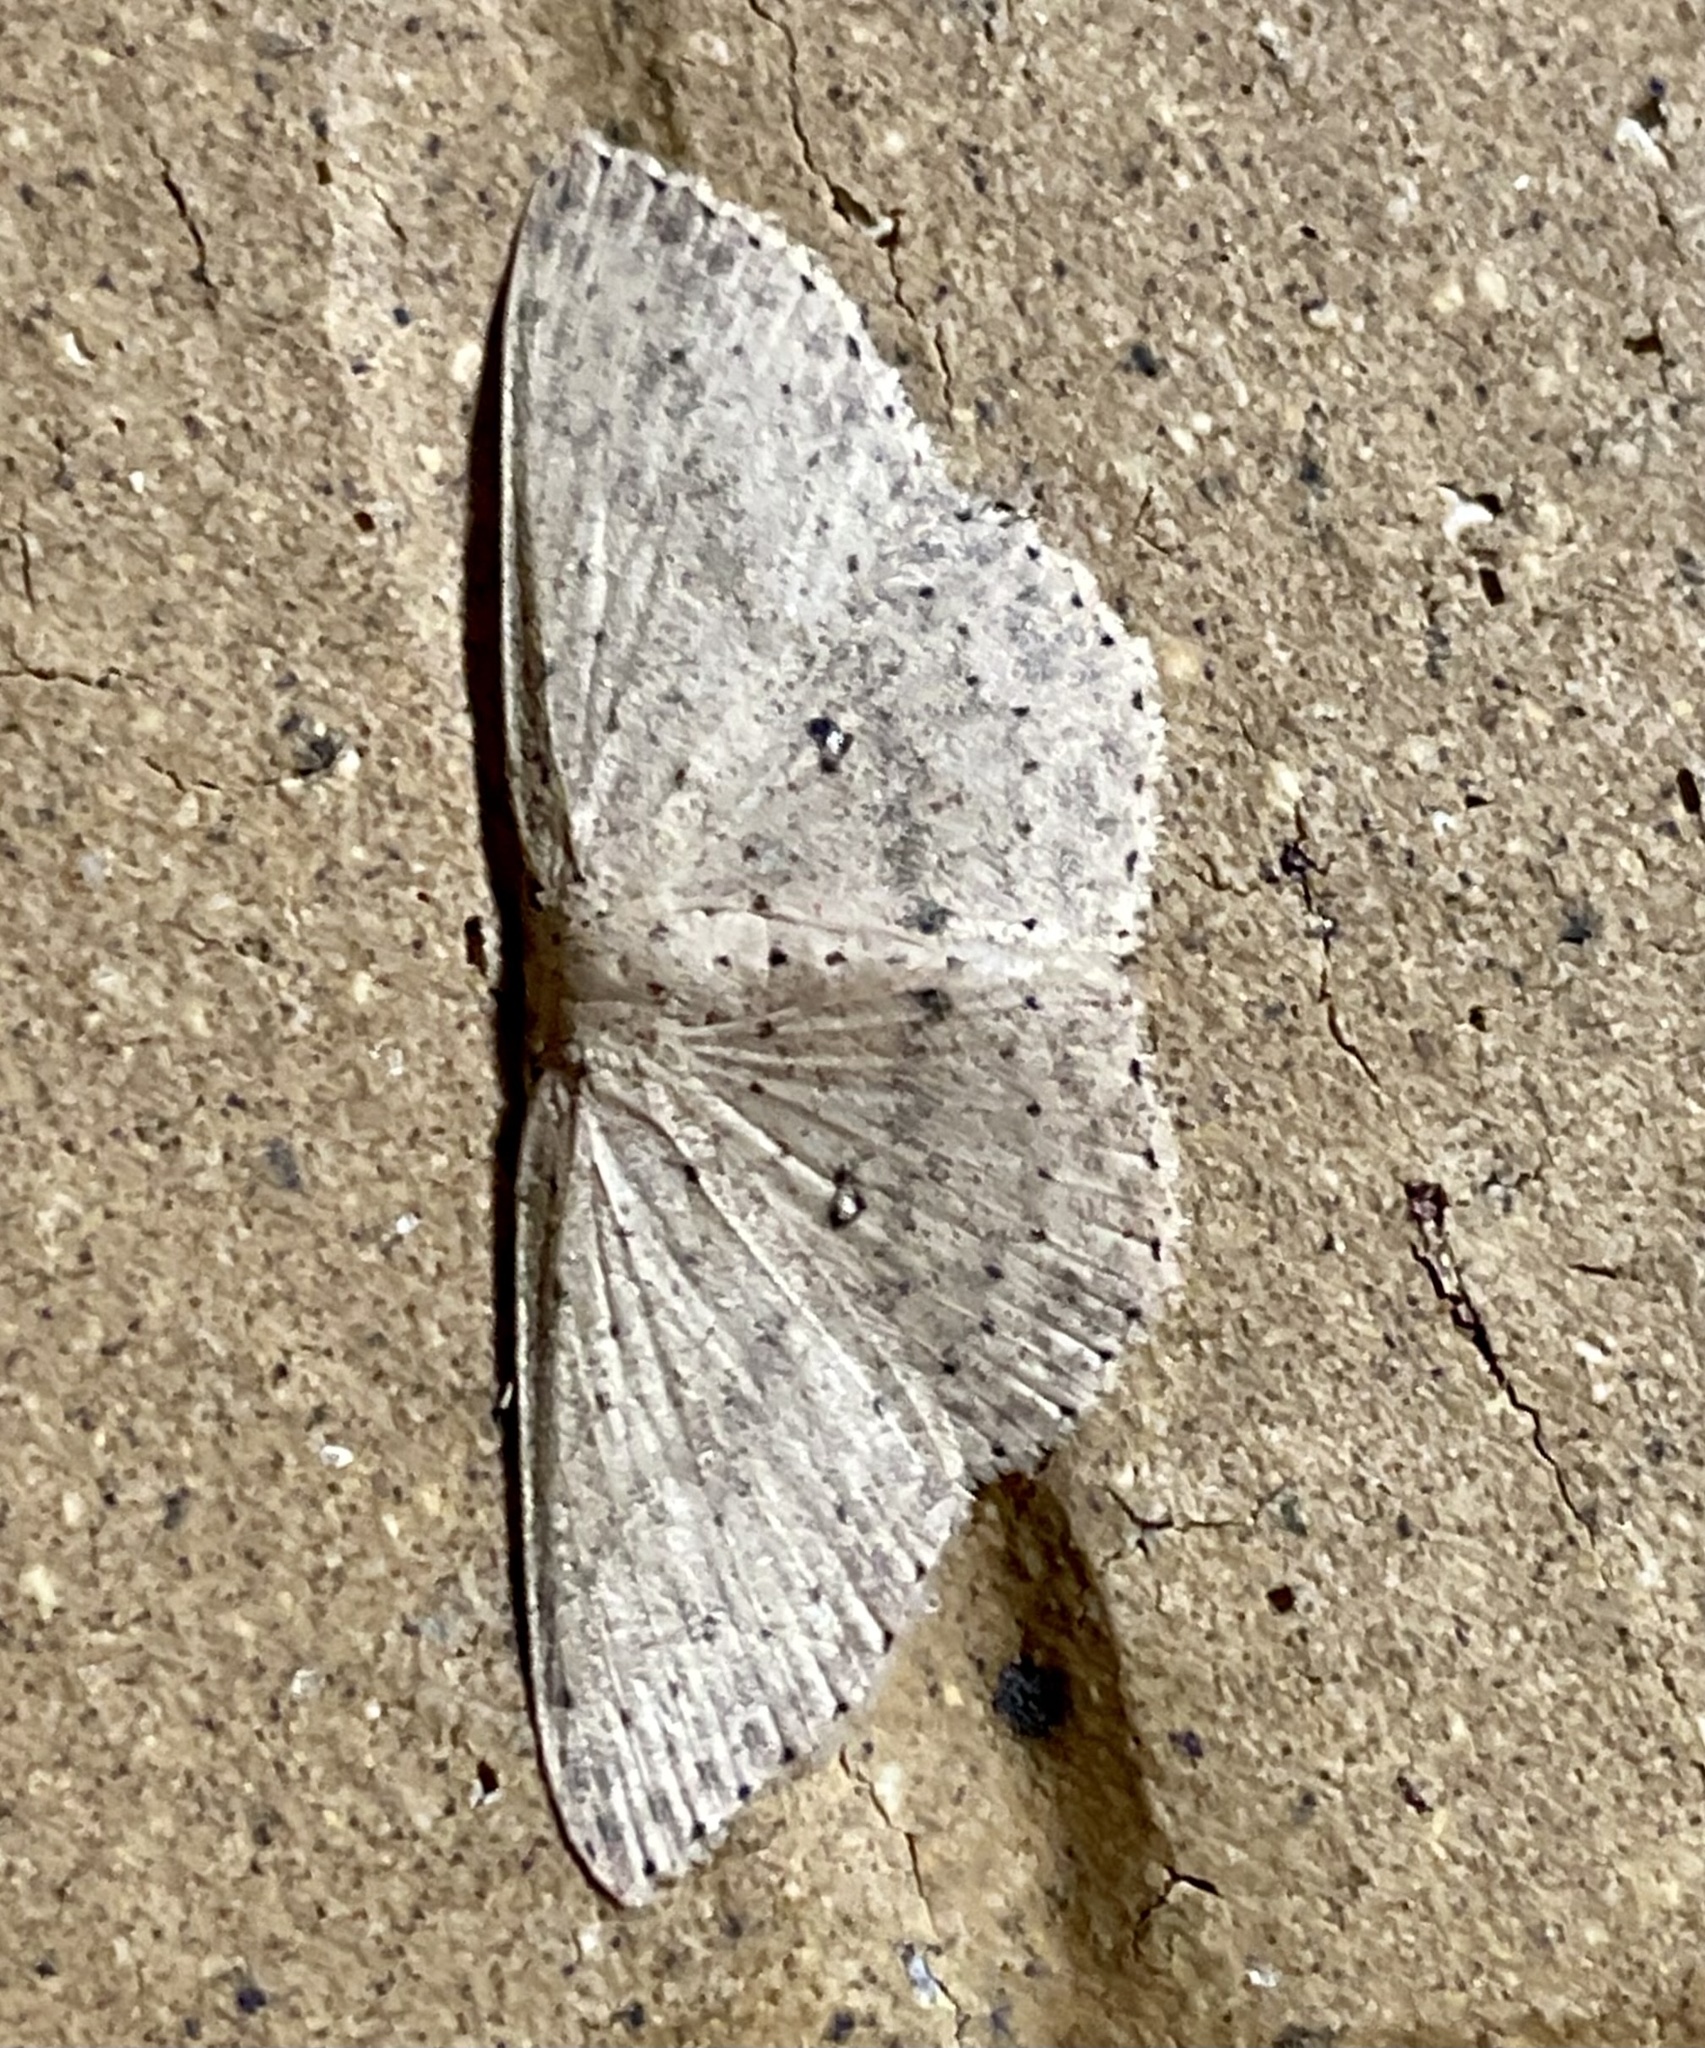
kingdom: Animalia
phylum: Arthropoda
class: Insecta
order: Lepidoptera
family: Geometridae
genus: Cyclophora
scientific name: Cyclophora turneri
